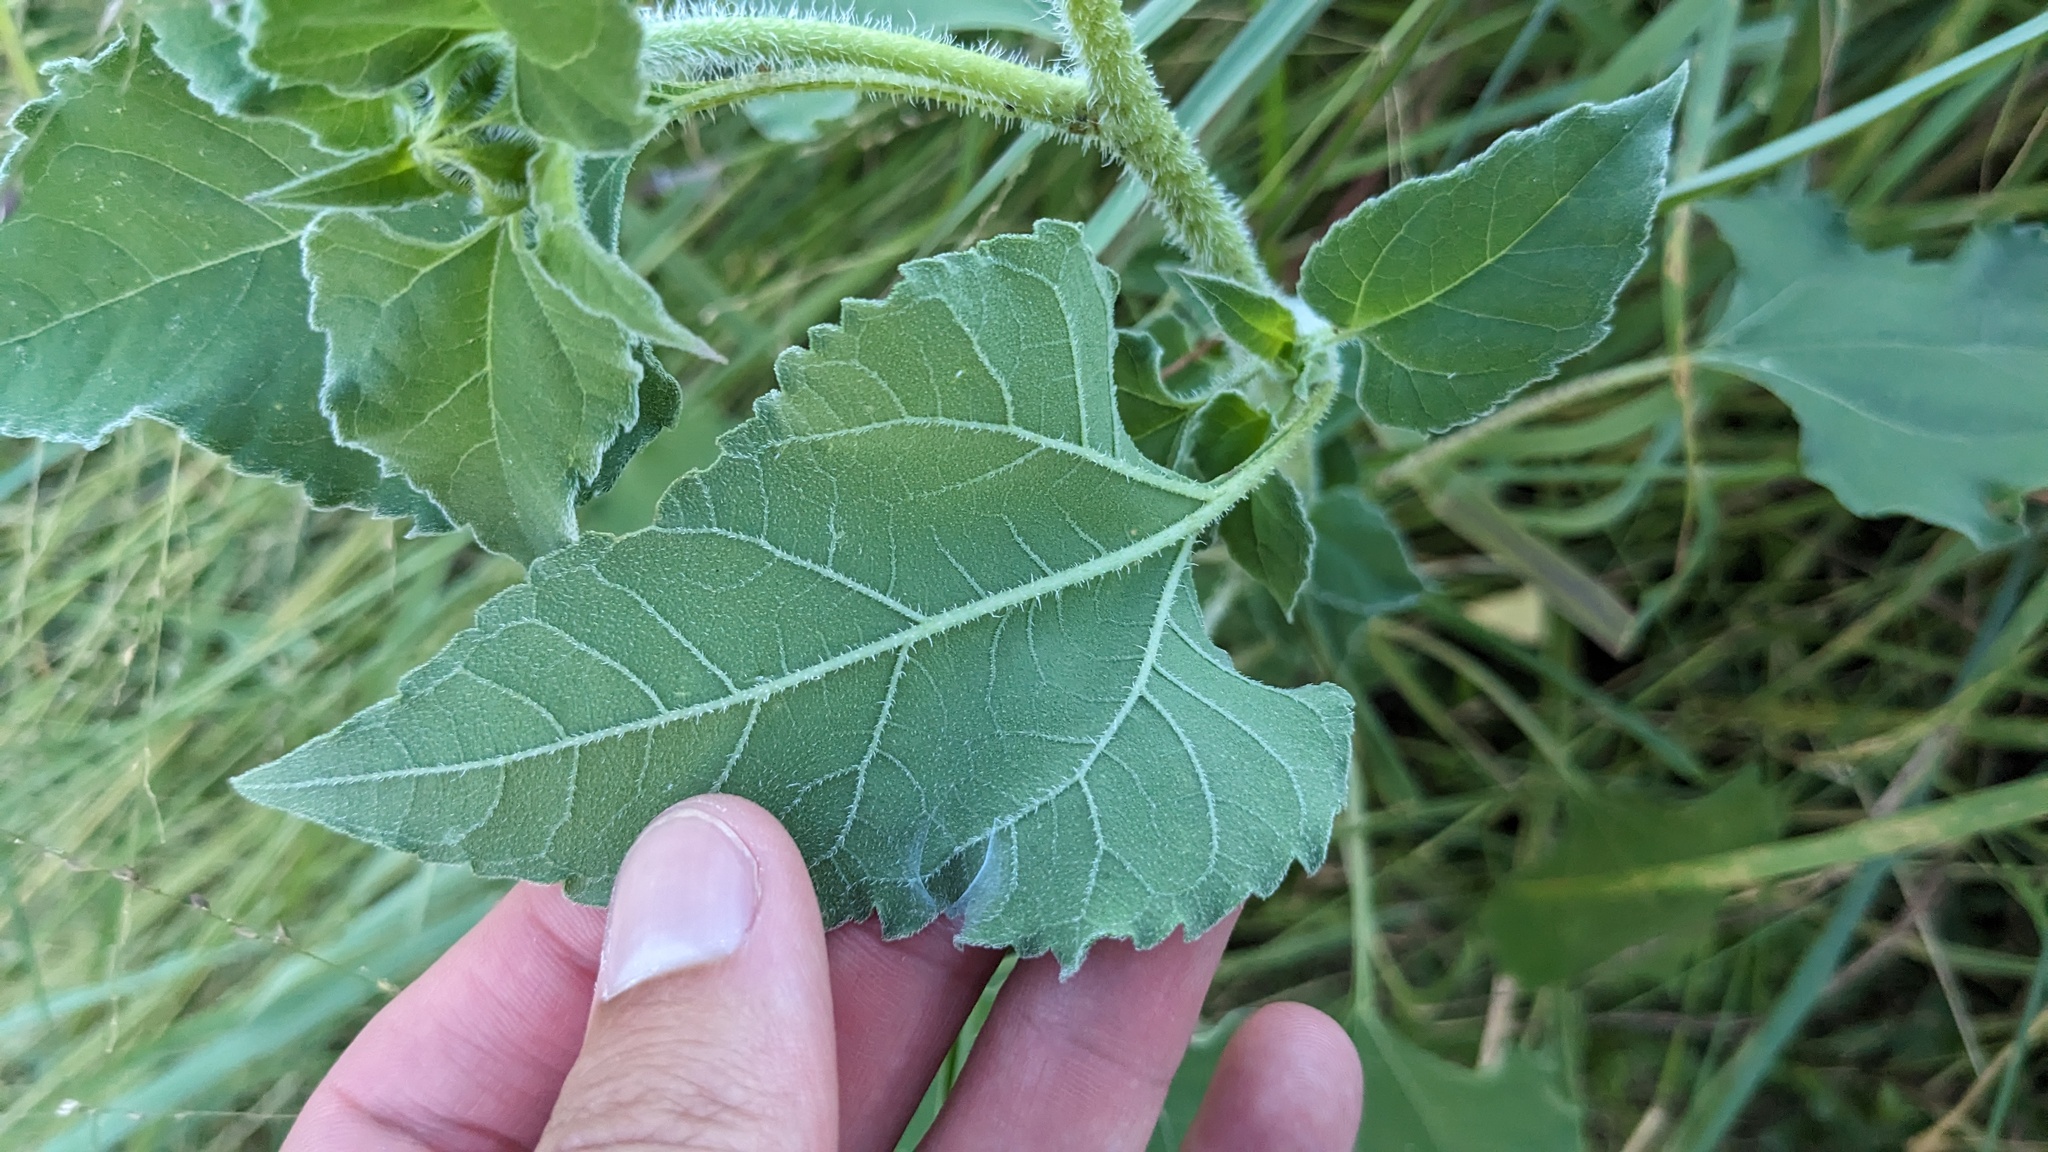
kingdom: Plantae
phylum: Tracheophyta
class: Magnoliopsida
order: Asterales
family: Asteraceae
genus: Helianthus
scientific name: Helianthus annuus
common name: Sunflower
